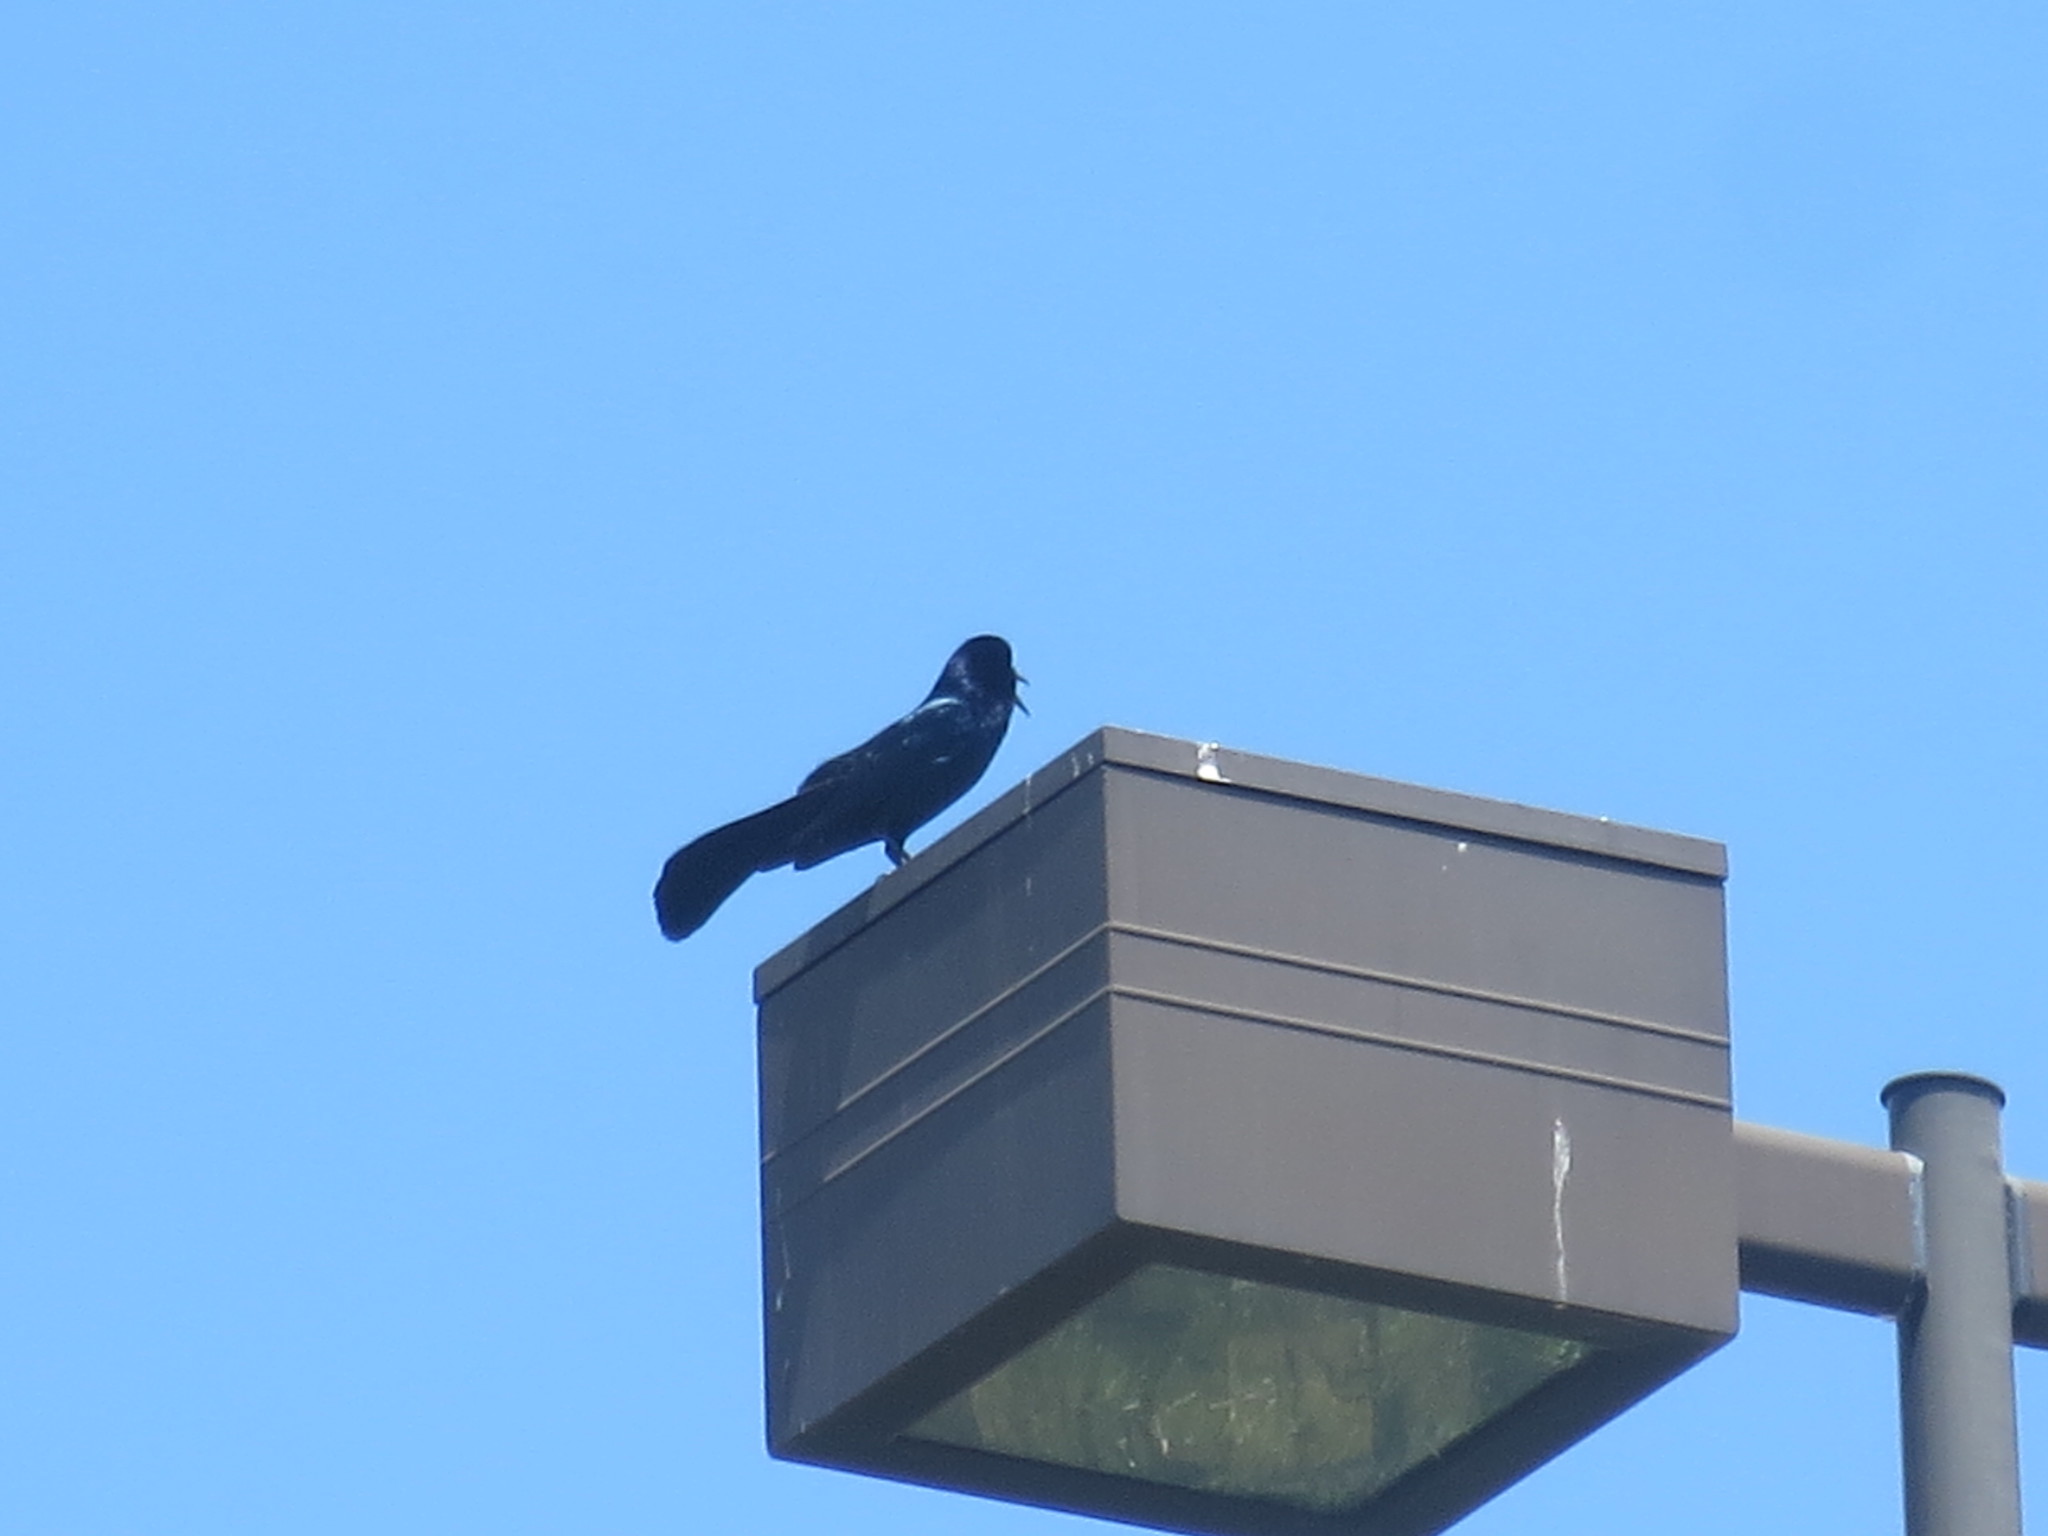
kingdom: Animalia
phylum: Chordata
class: Aves
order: Passeriformes
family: Icteridae
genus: Quiscalus
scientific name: Quiscalus major
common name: Boat-tailed grackle
